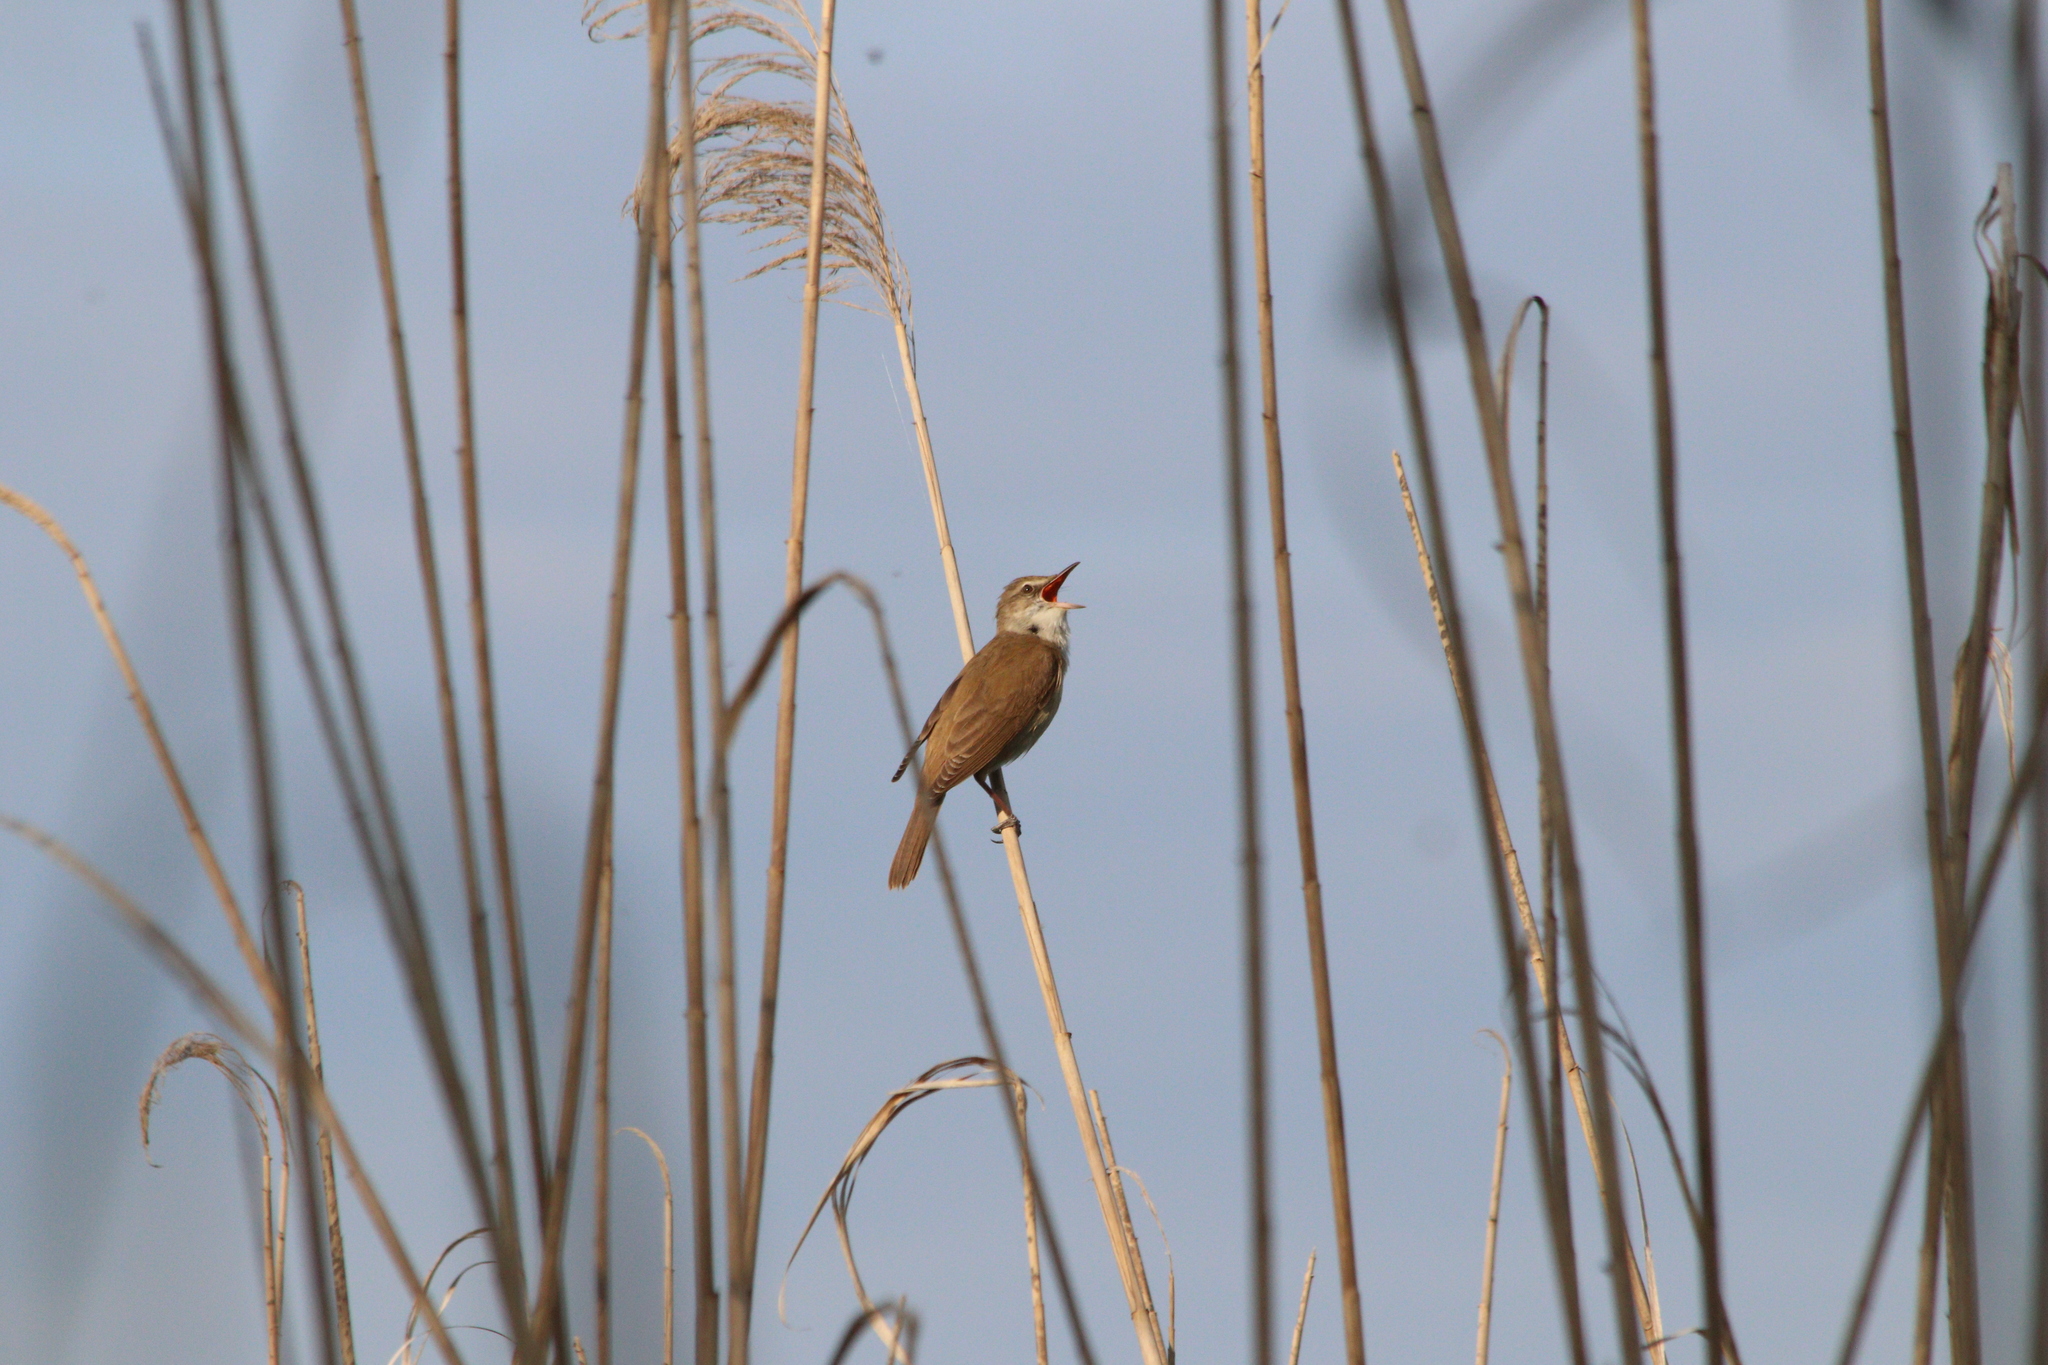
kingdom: Animalia
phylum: Chordata
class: Aves
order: Passeriformes
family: Acrocephalidae
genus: Acrocephalus
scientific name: Acrocephalus arundinaceus
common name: Great reed warbler
